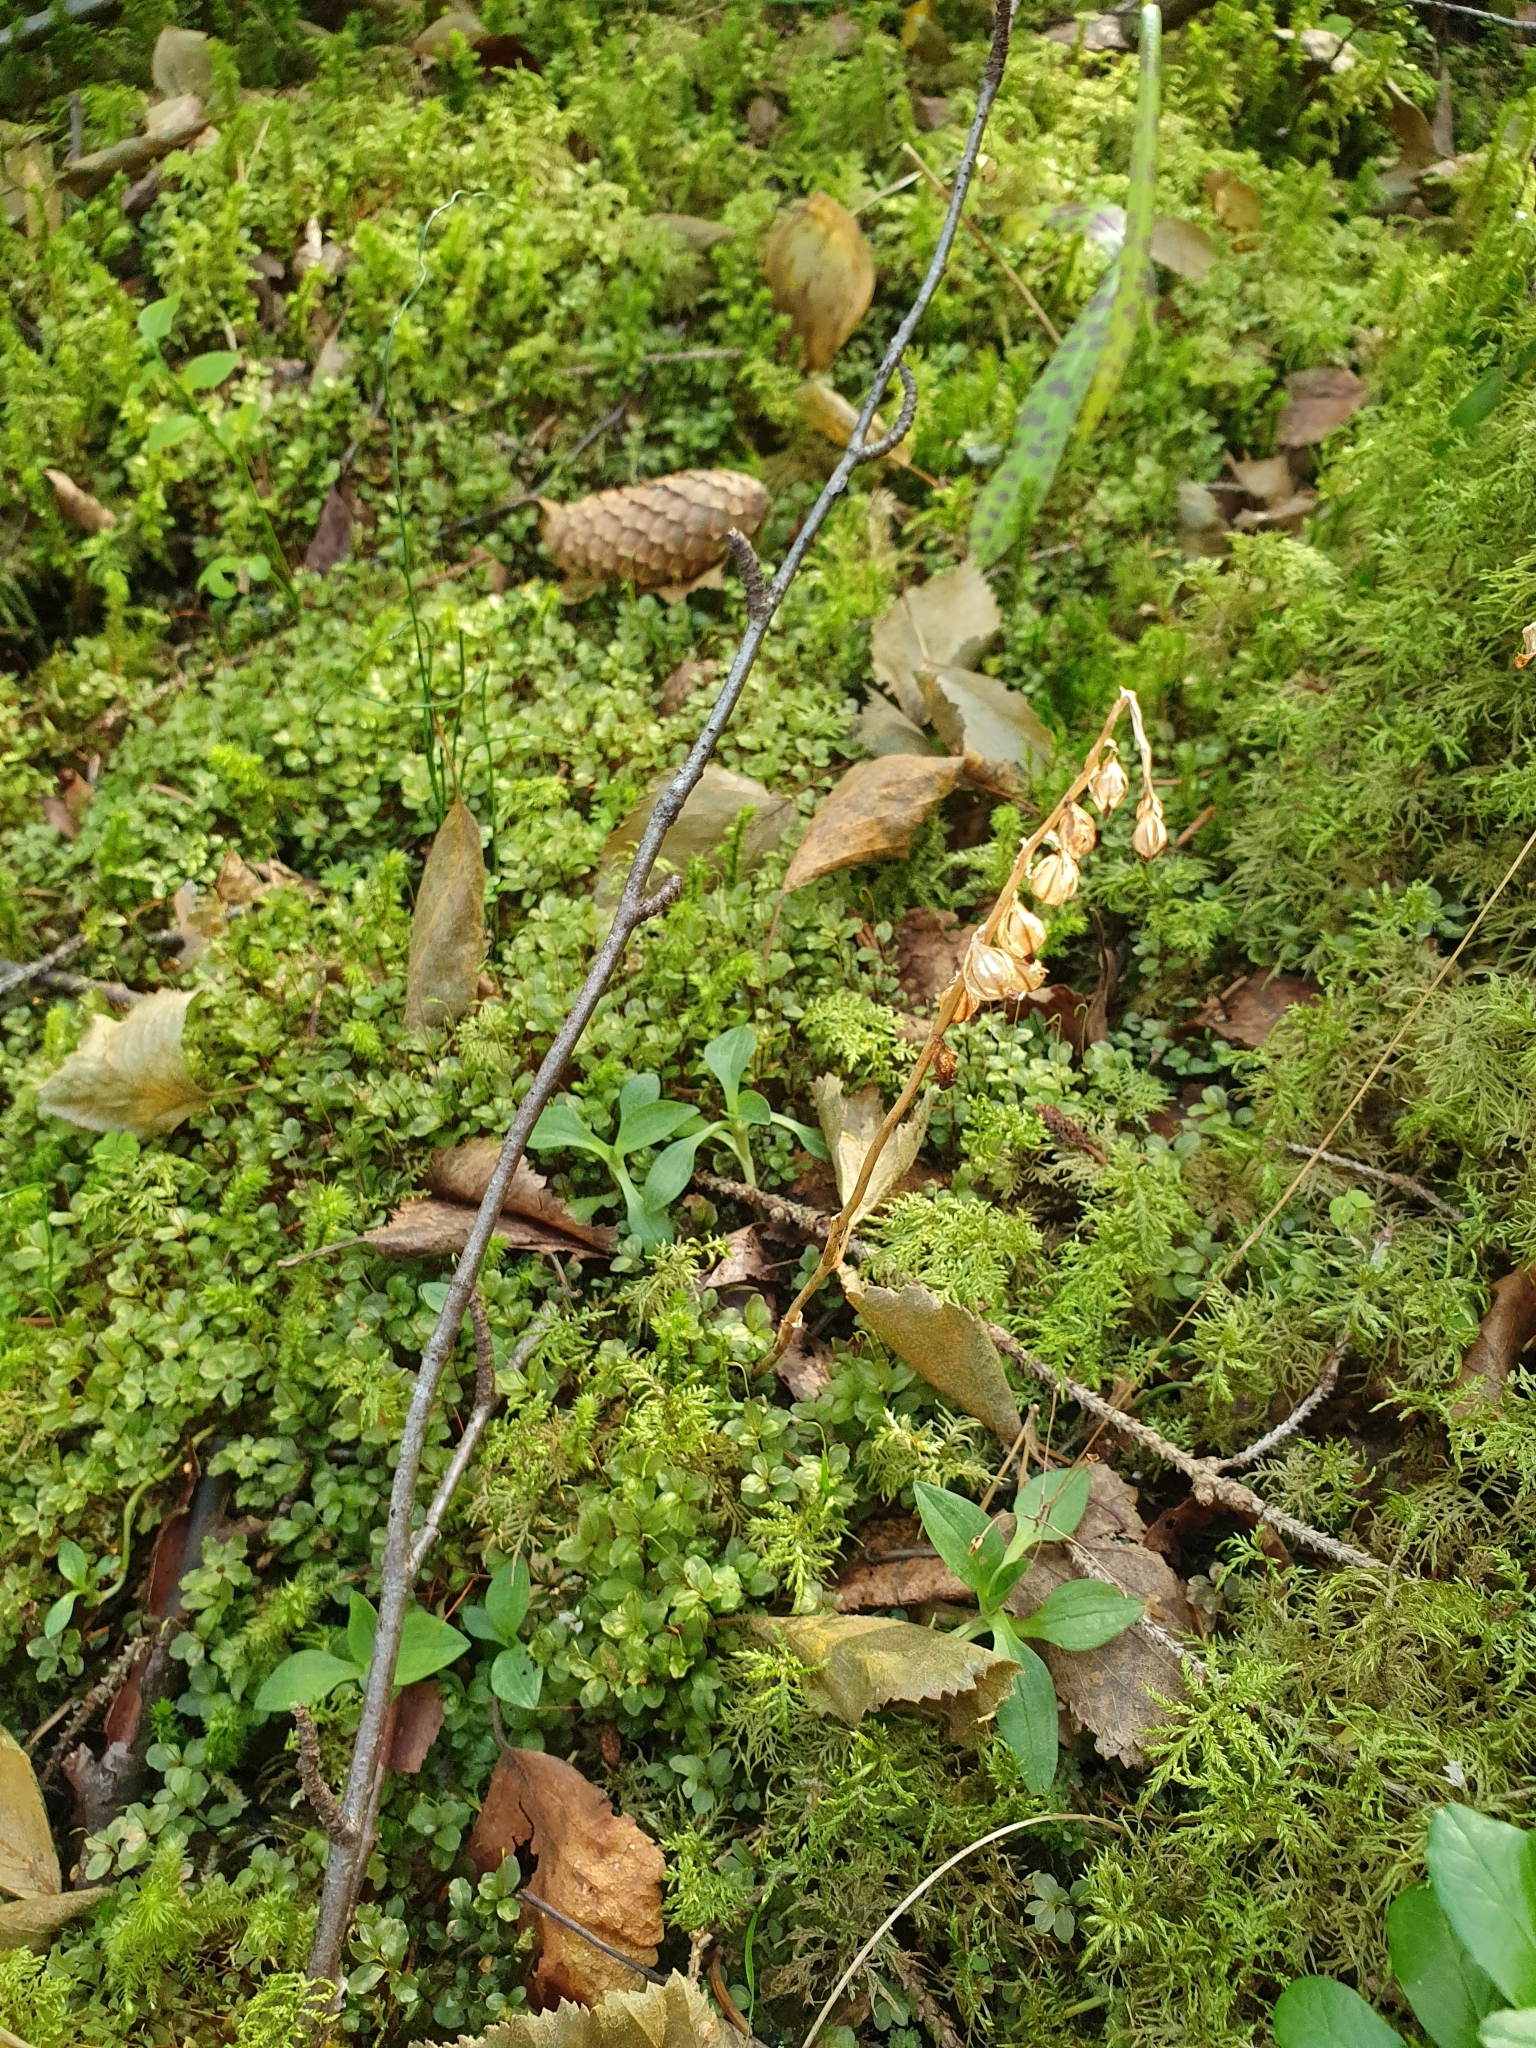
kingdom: Plantae
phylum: Tracheophyta
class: Liliopsida
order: Asparagales
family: Orchidaceae
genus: Goodyera
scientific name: Goodyera repens
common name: Creeping lady's-tresses
